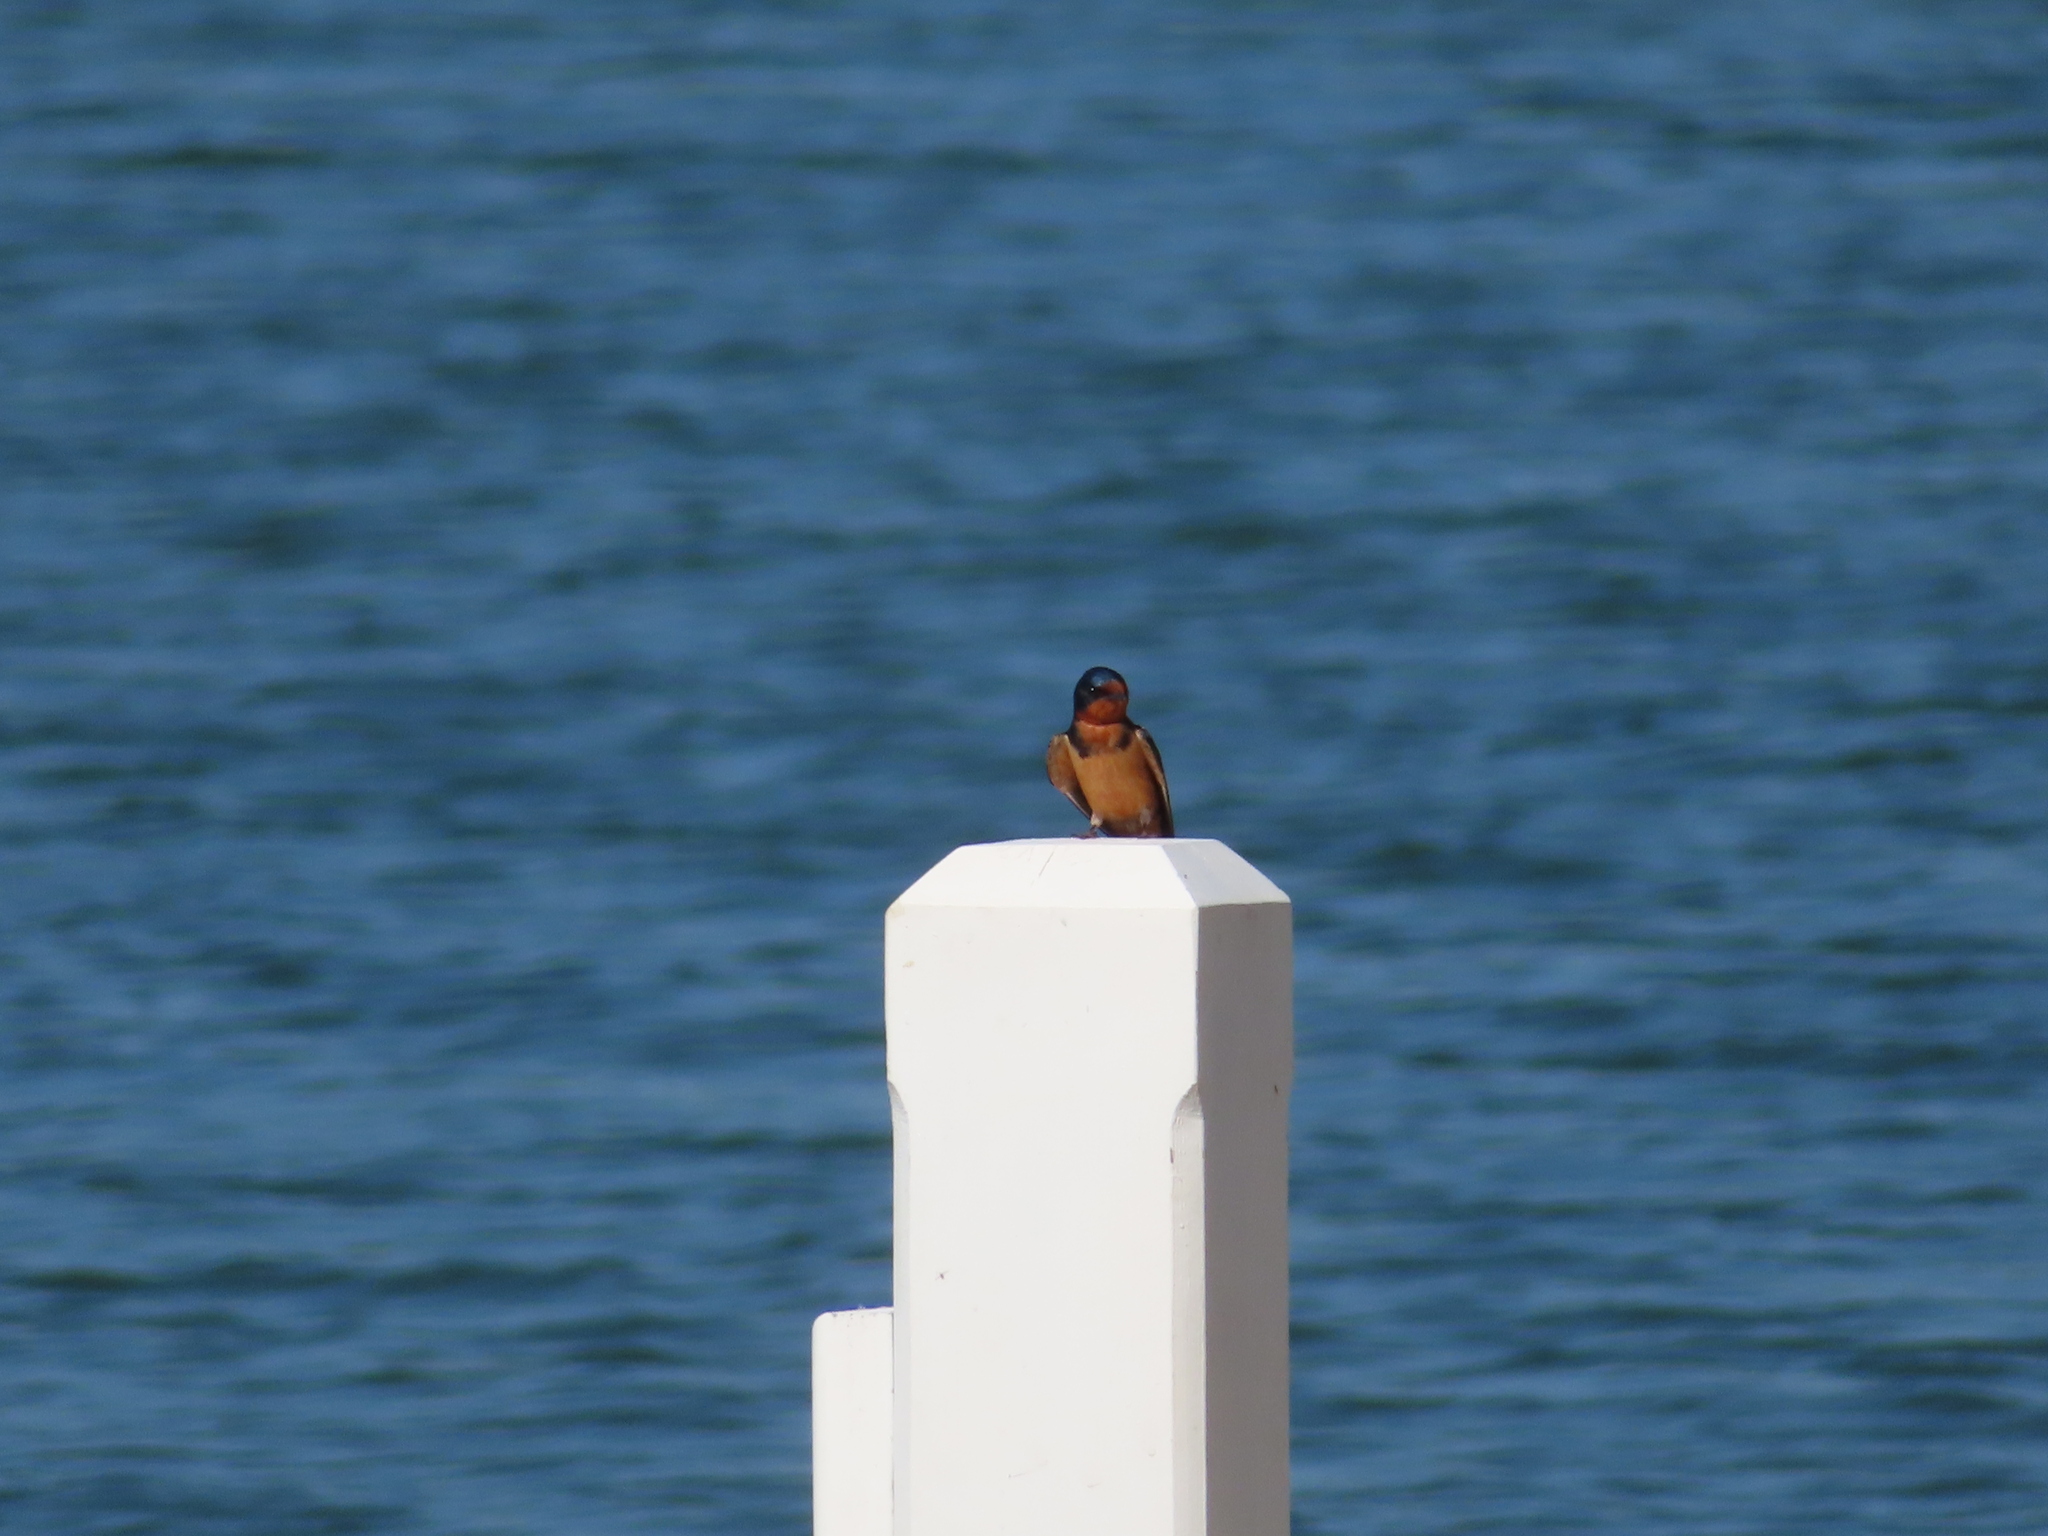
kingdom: Animalia
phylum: Chordata
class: Aves
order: Passeriformes
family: Hirundinidae
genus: Hirundo
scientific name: Hirundo rustica
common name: Barn swallow
